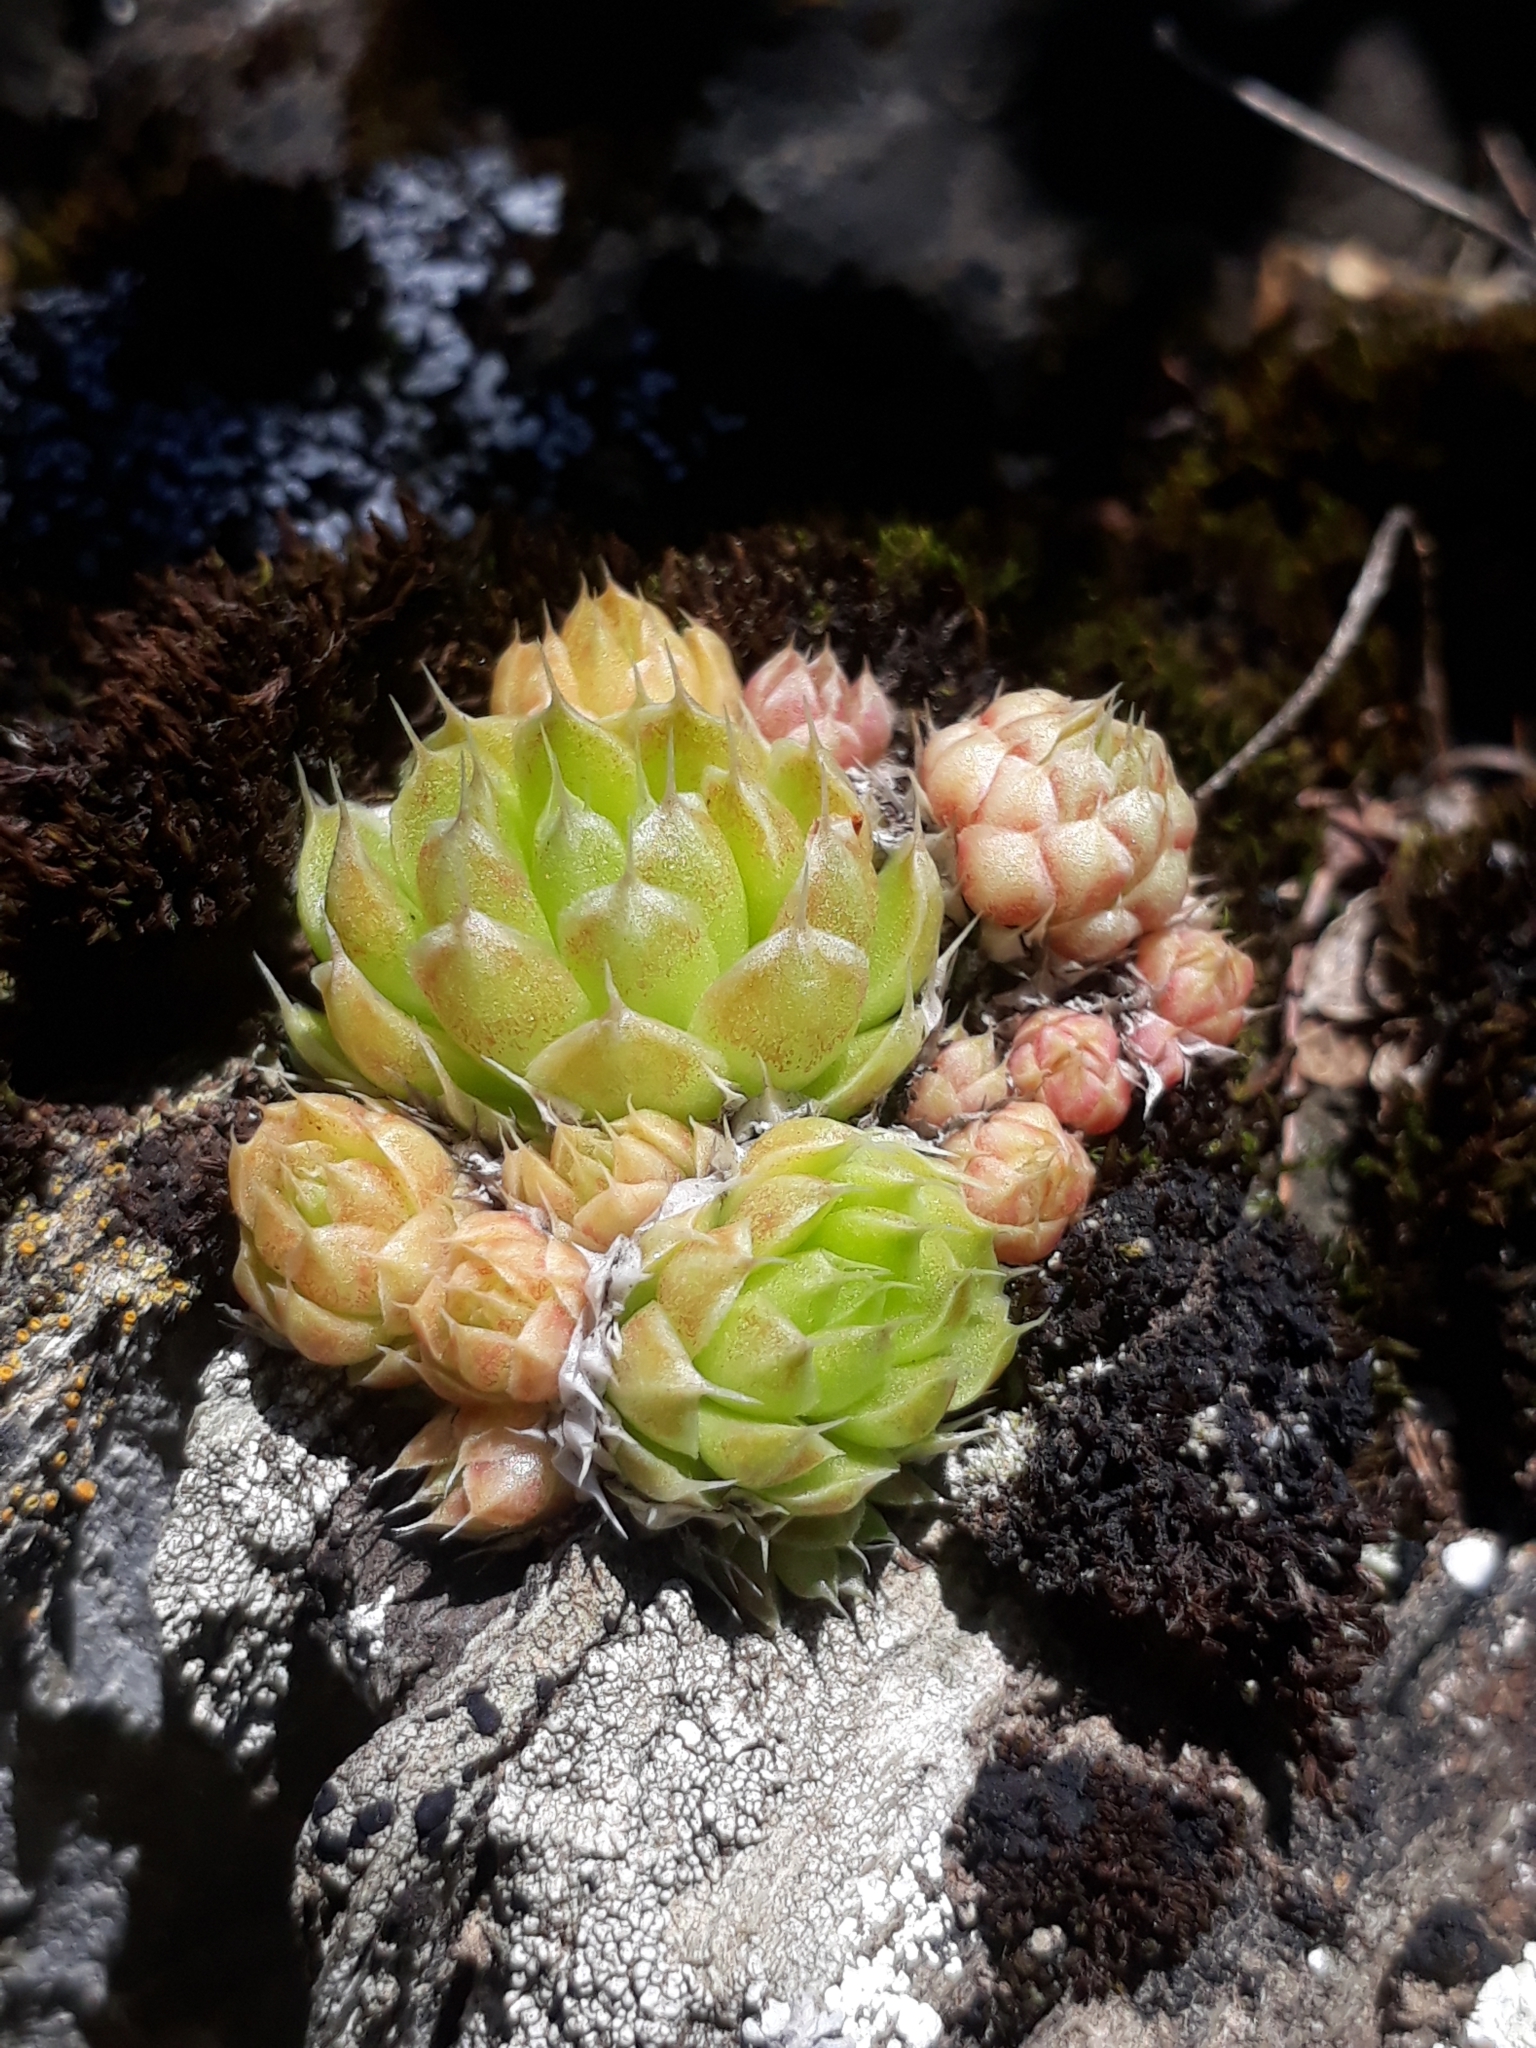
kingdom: Plantae
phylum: Tracheophyta
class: Magnoliopsida
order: Saxifragales
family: Crassulaceae
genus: Orostachys
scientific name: Orostachys spinosa
